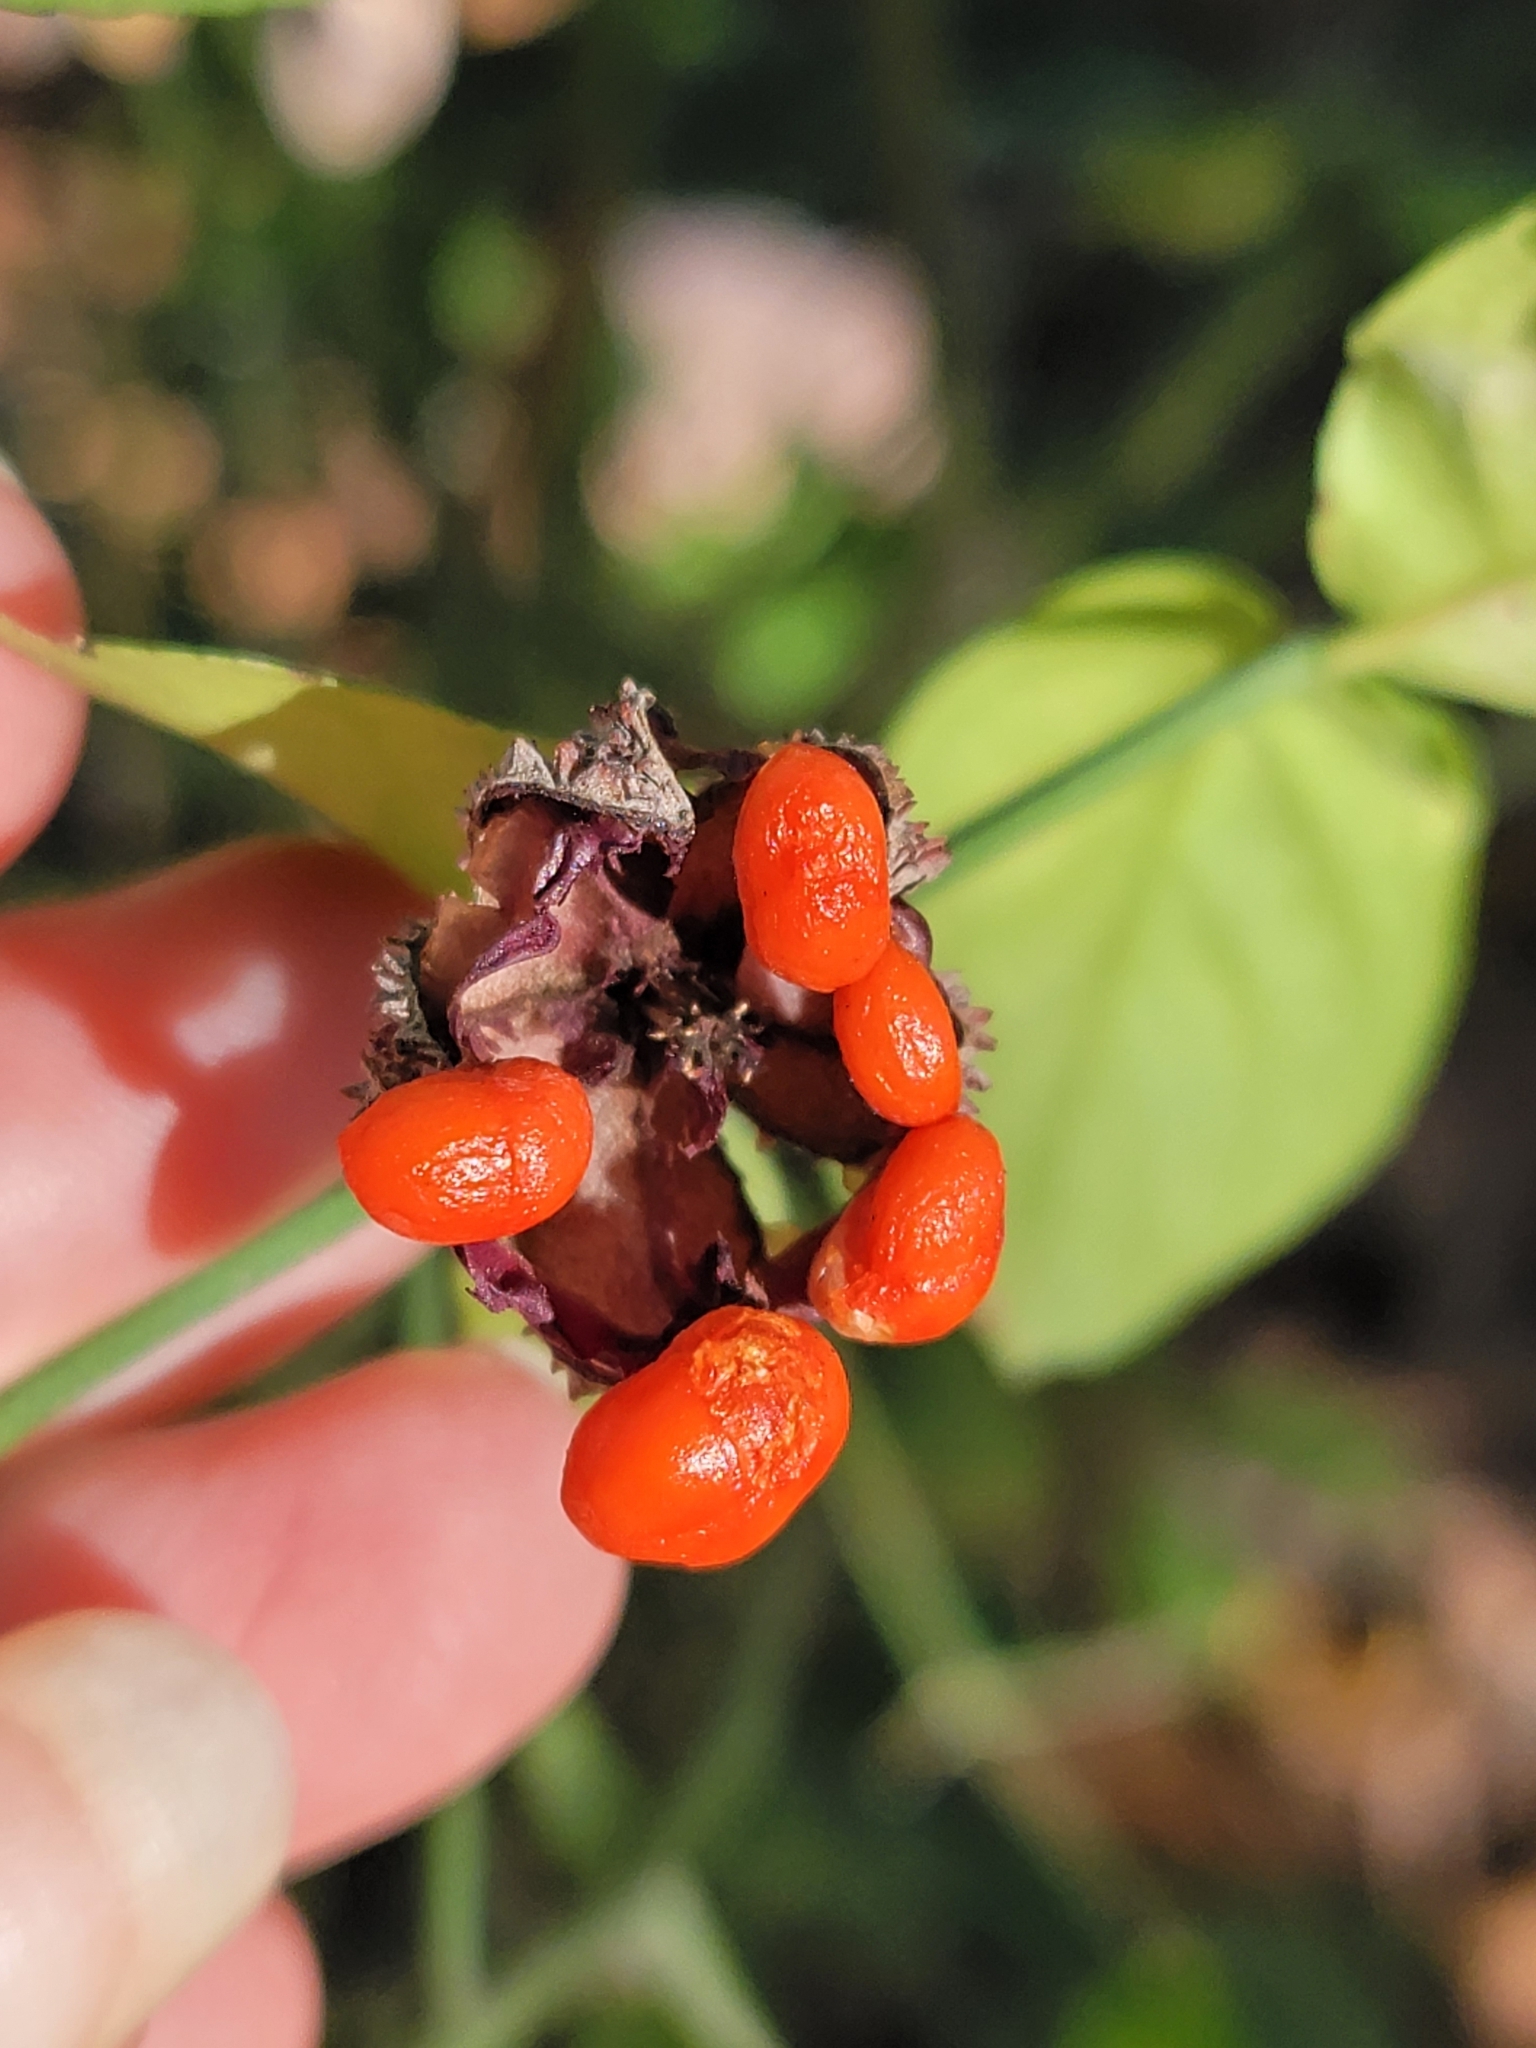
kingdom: Plantae
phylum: Tracheophyta
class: Magnoliopsida
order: Celastrales
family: Celastraceae
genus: Euonymus
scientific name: Euonymus americanus
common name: Bursting-heart
